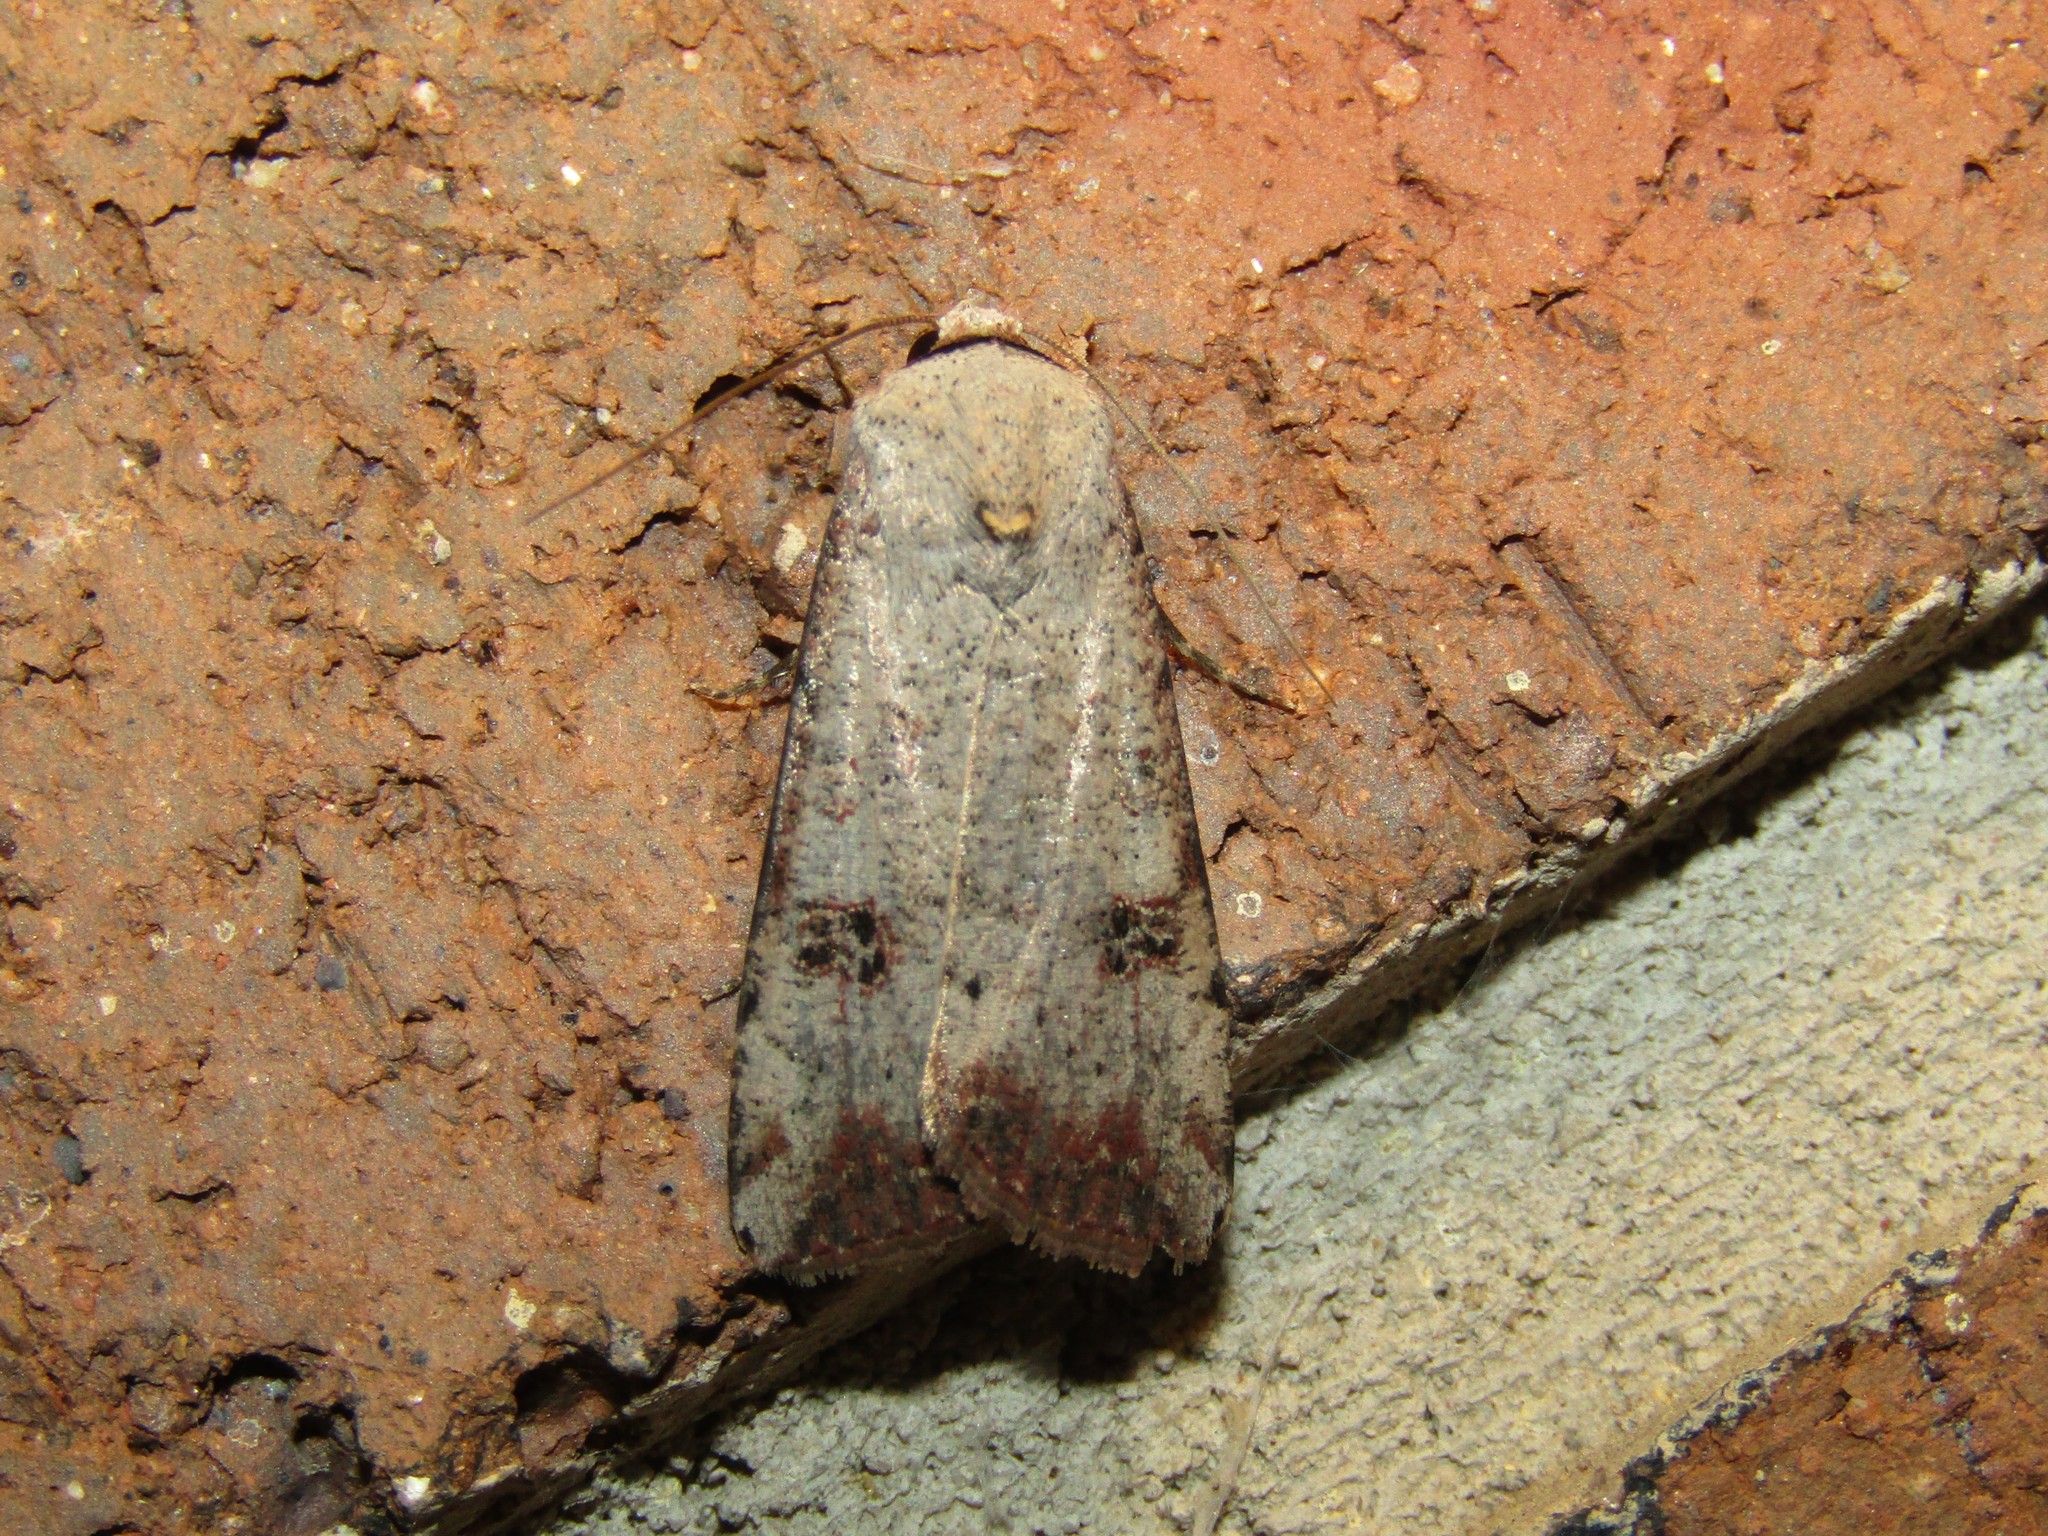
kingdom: Animalia
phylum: Arthropoda
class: Insecta
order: Lepidoptera
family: Noctuidae
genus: Anicla
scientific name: Anicla infecta
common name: Green cutworm
